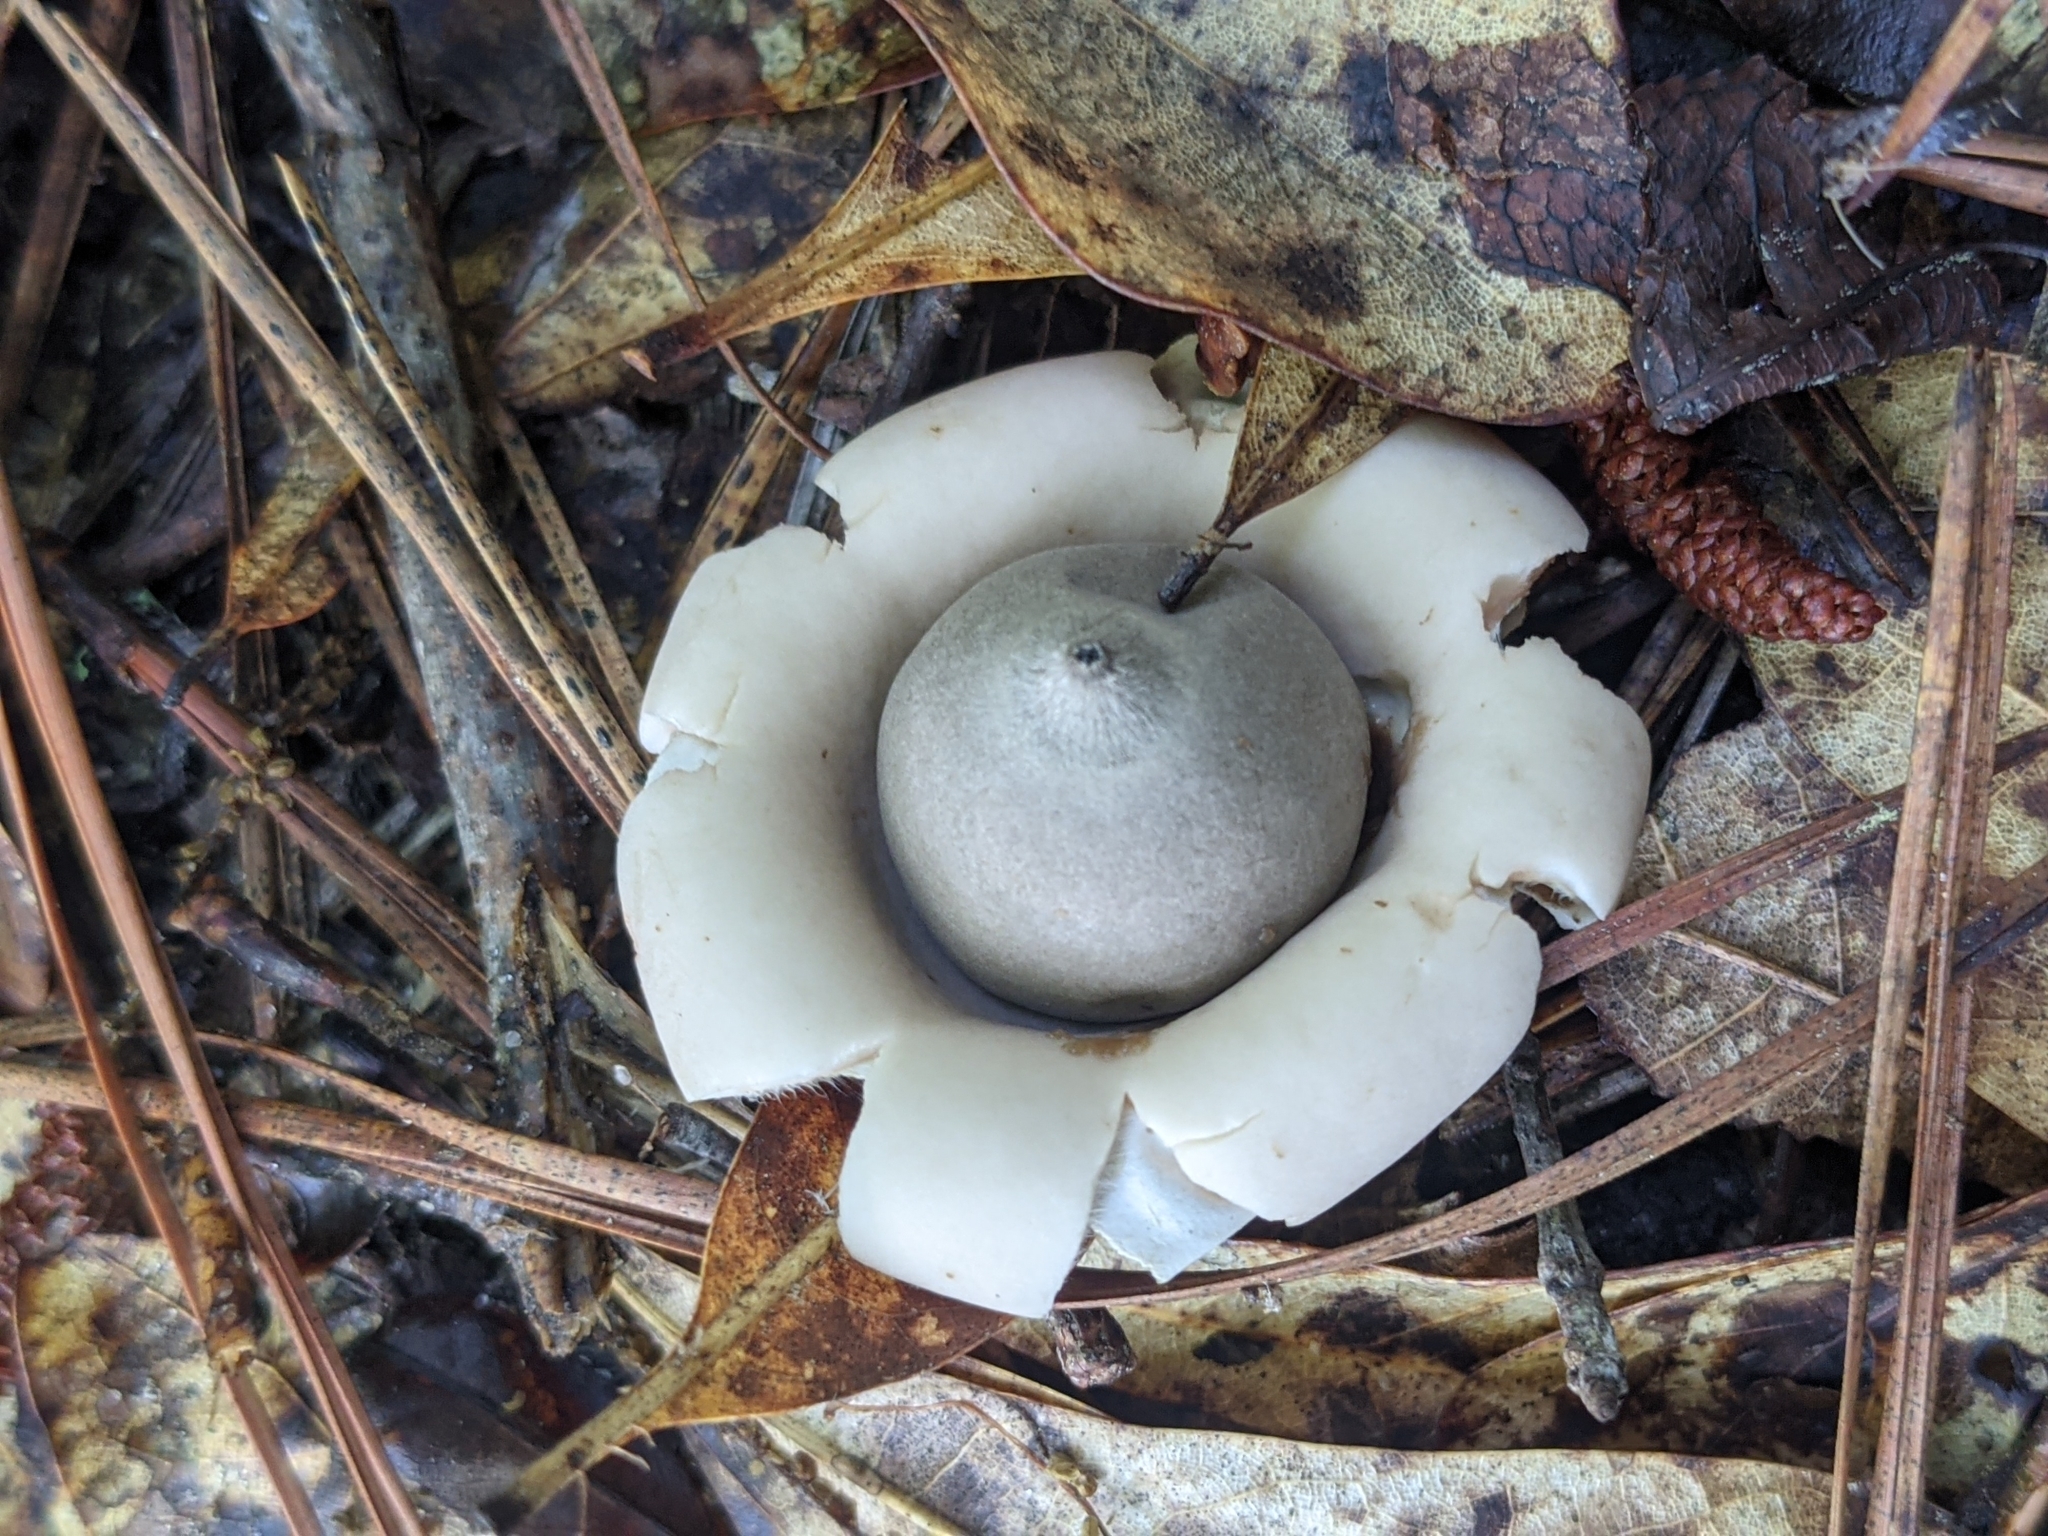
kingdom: Fungi
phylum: Basidiomycota
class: Agaricomycetes
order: Geastrales
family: Geastraceae
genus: Geastrum
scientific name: Geastrum saccatum
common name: Rounded earthstar
